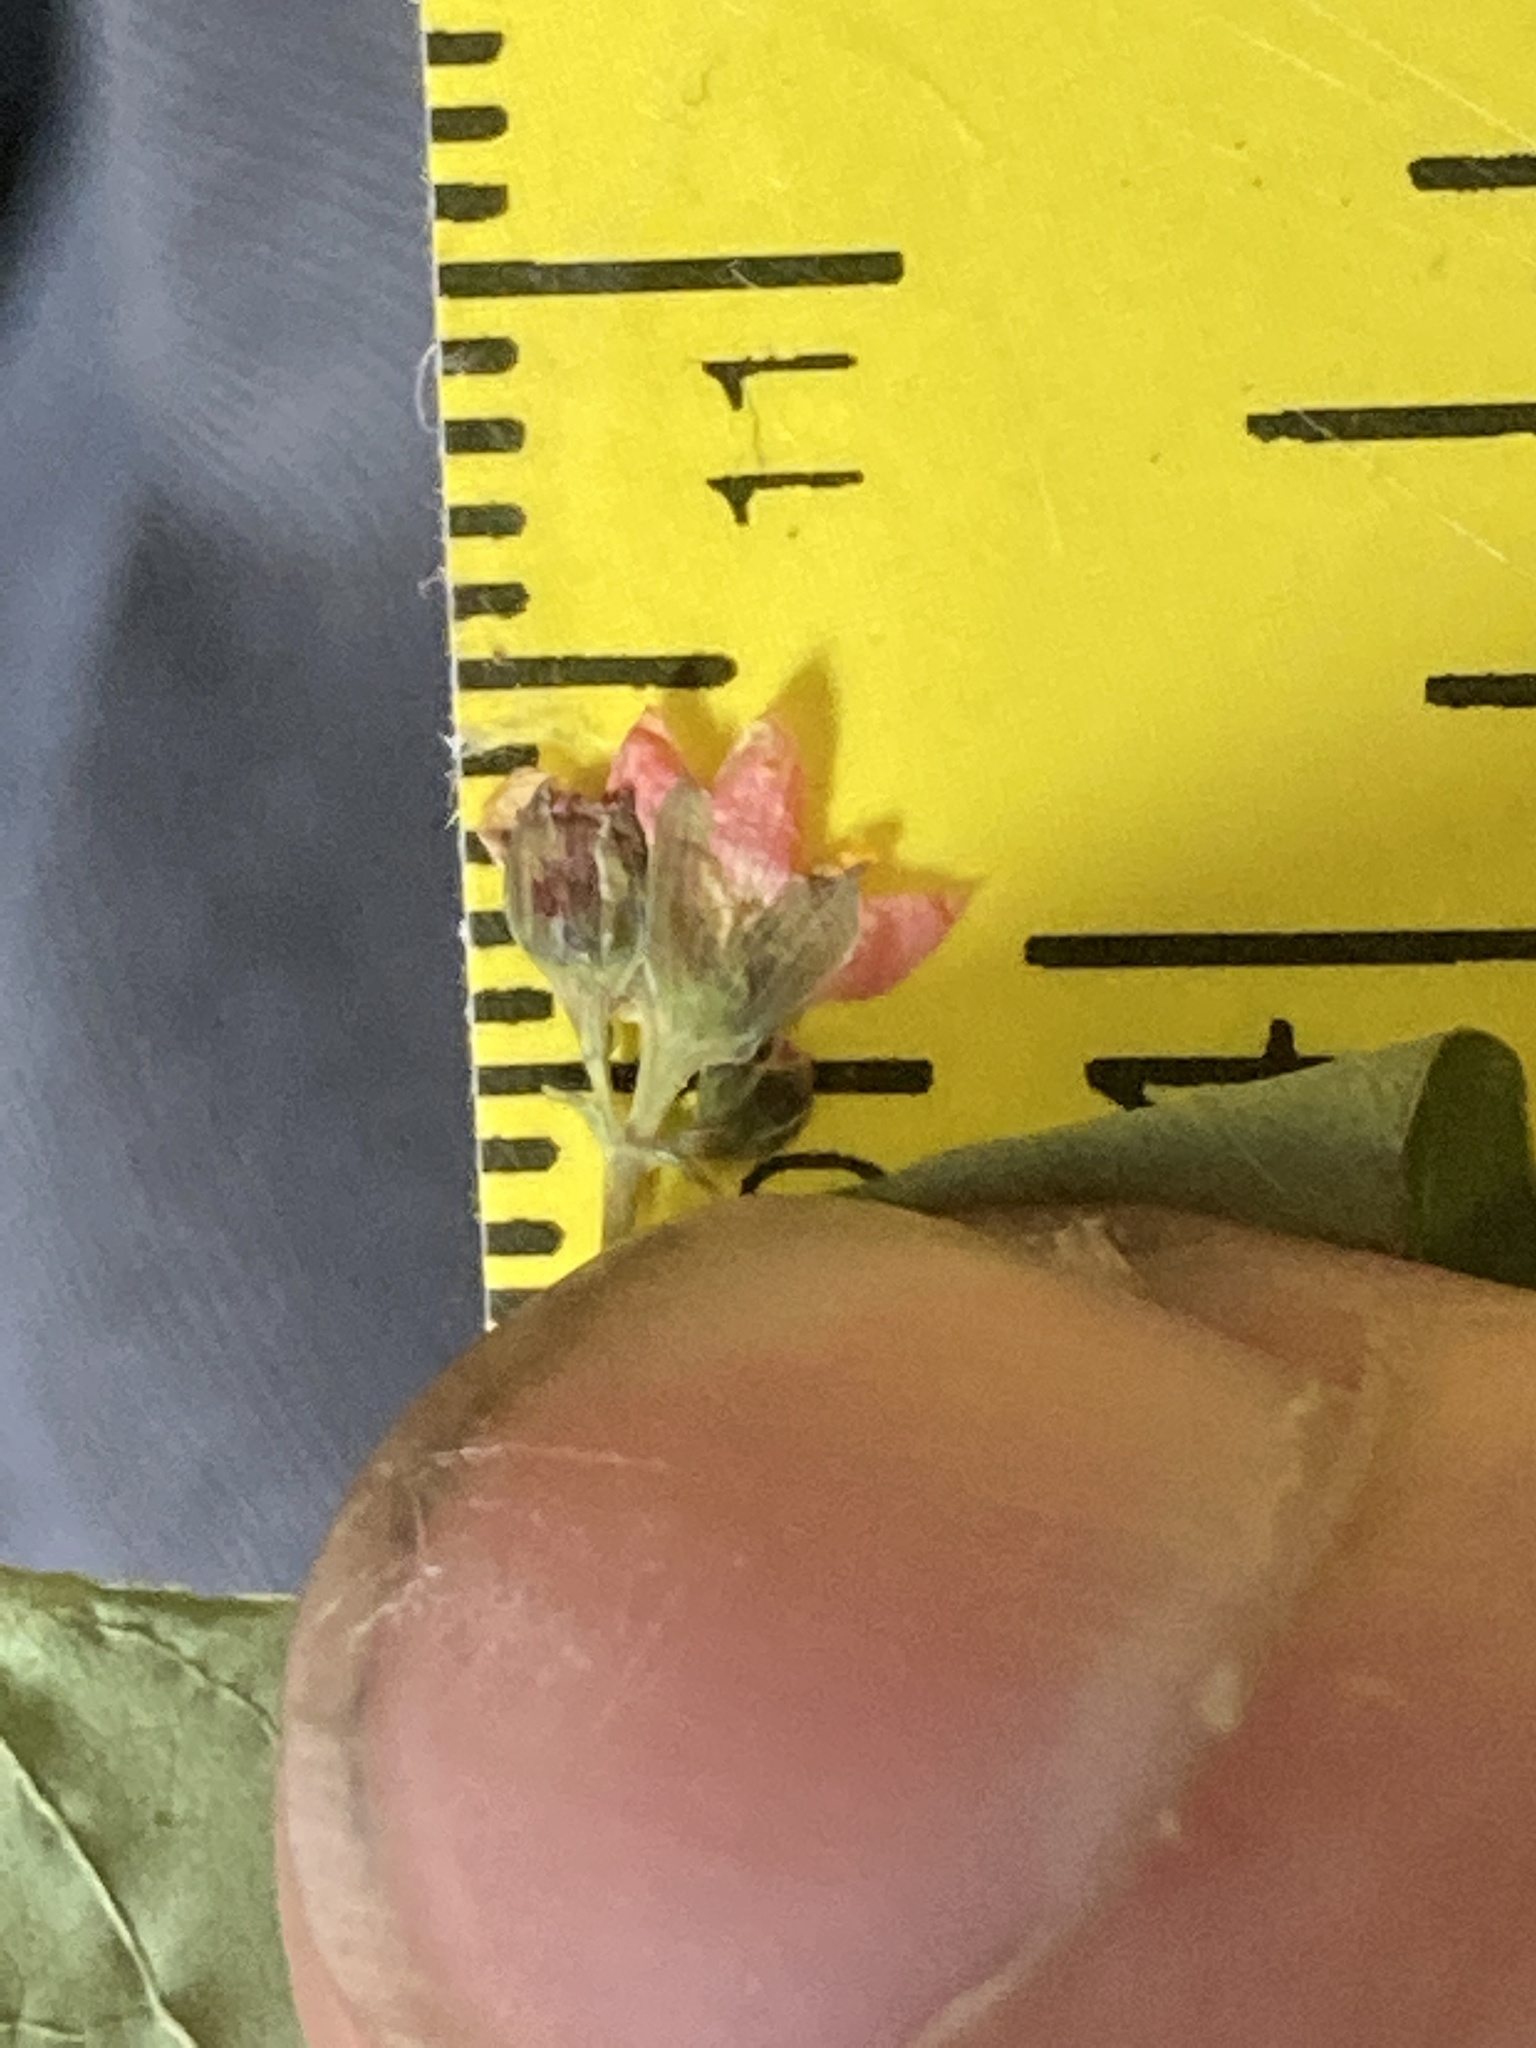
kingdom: Plantae
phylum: Tracheophyta
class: Magnoliopsida
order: Malpighiales
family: Hypericaceae
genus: Triadenum
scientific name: Triadenum fraseri
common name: Fraser's marsh st. johnswort
